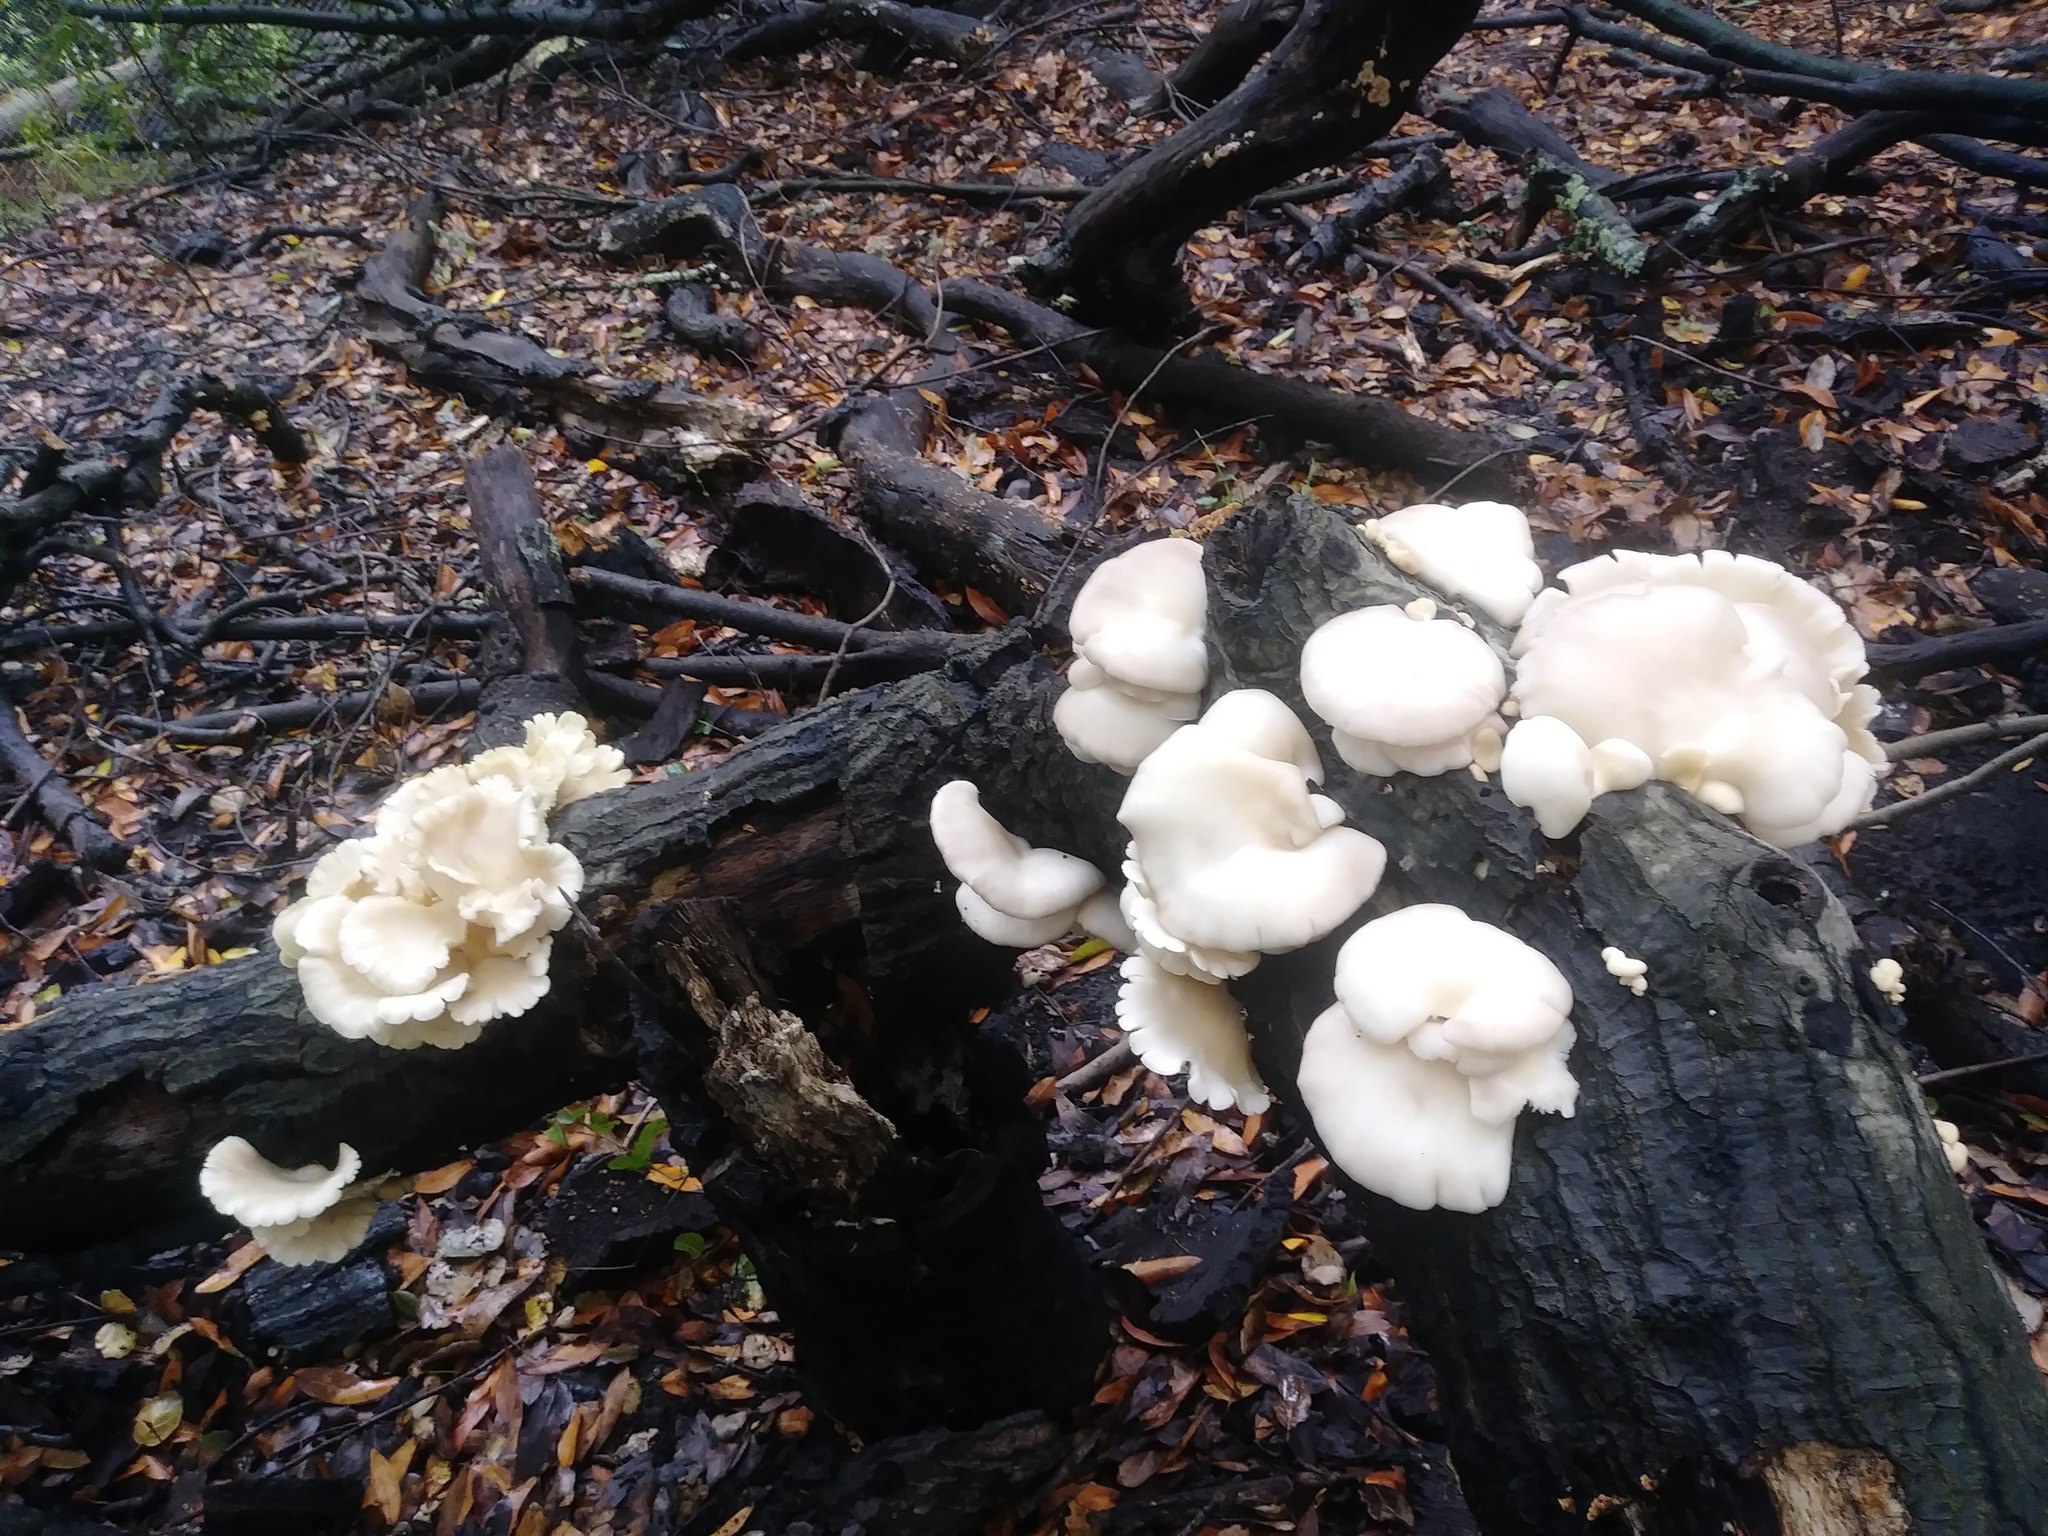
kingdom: Fungi
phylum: Basidiomycota
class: Agaricomycetes
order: Agaricales
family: Pleurotaceae
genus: Pleurotus
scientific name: Pleurotus ostreatus
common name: Oyster mushroom
